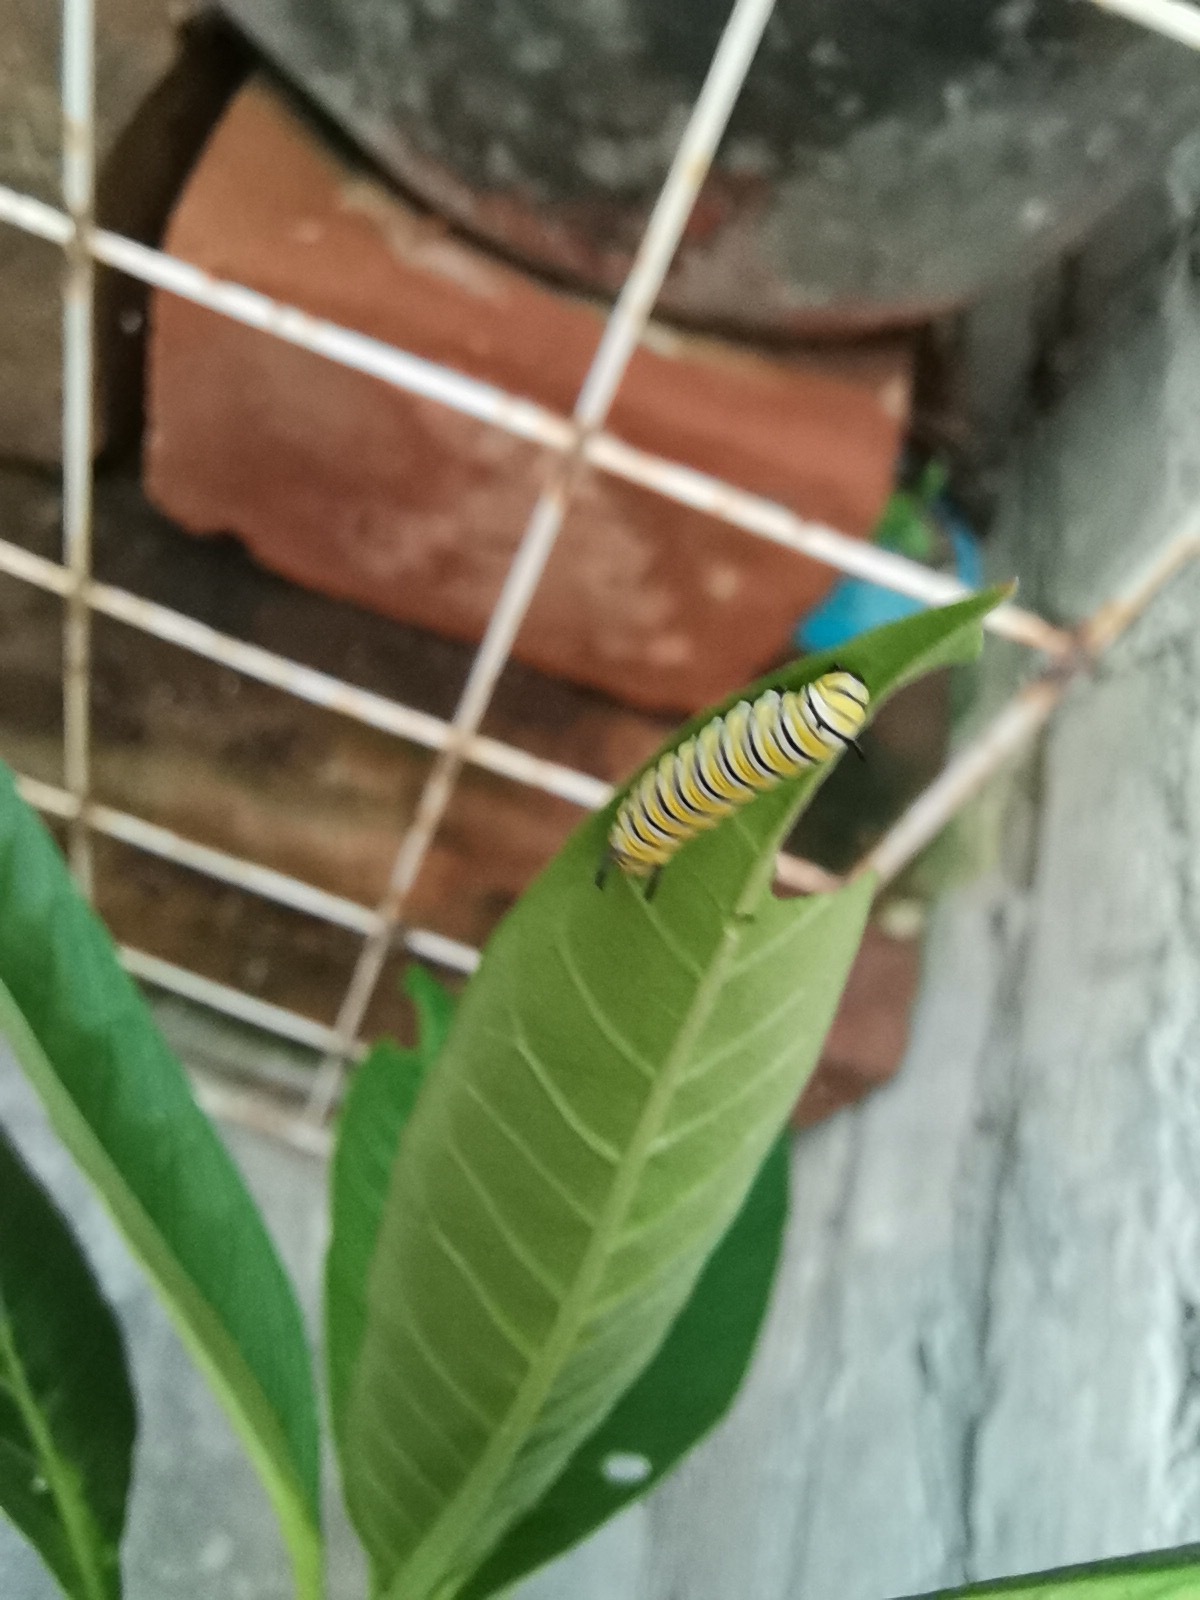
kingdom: Animalia
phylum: Arthropoda
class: Insecta
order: Lepidoptera
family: Nymphalidae
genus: Danaus
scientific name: Danaus plexippus
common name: Monarch
